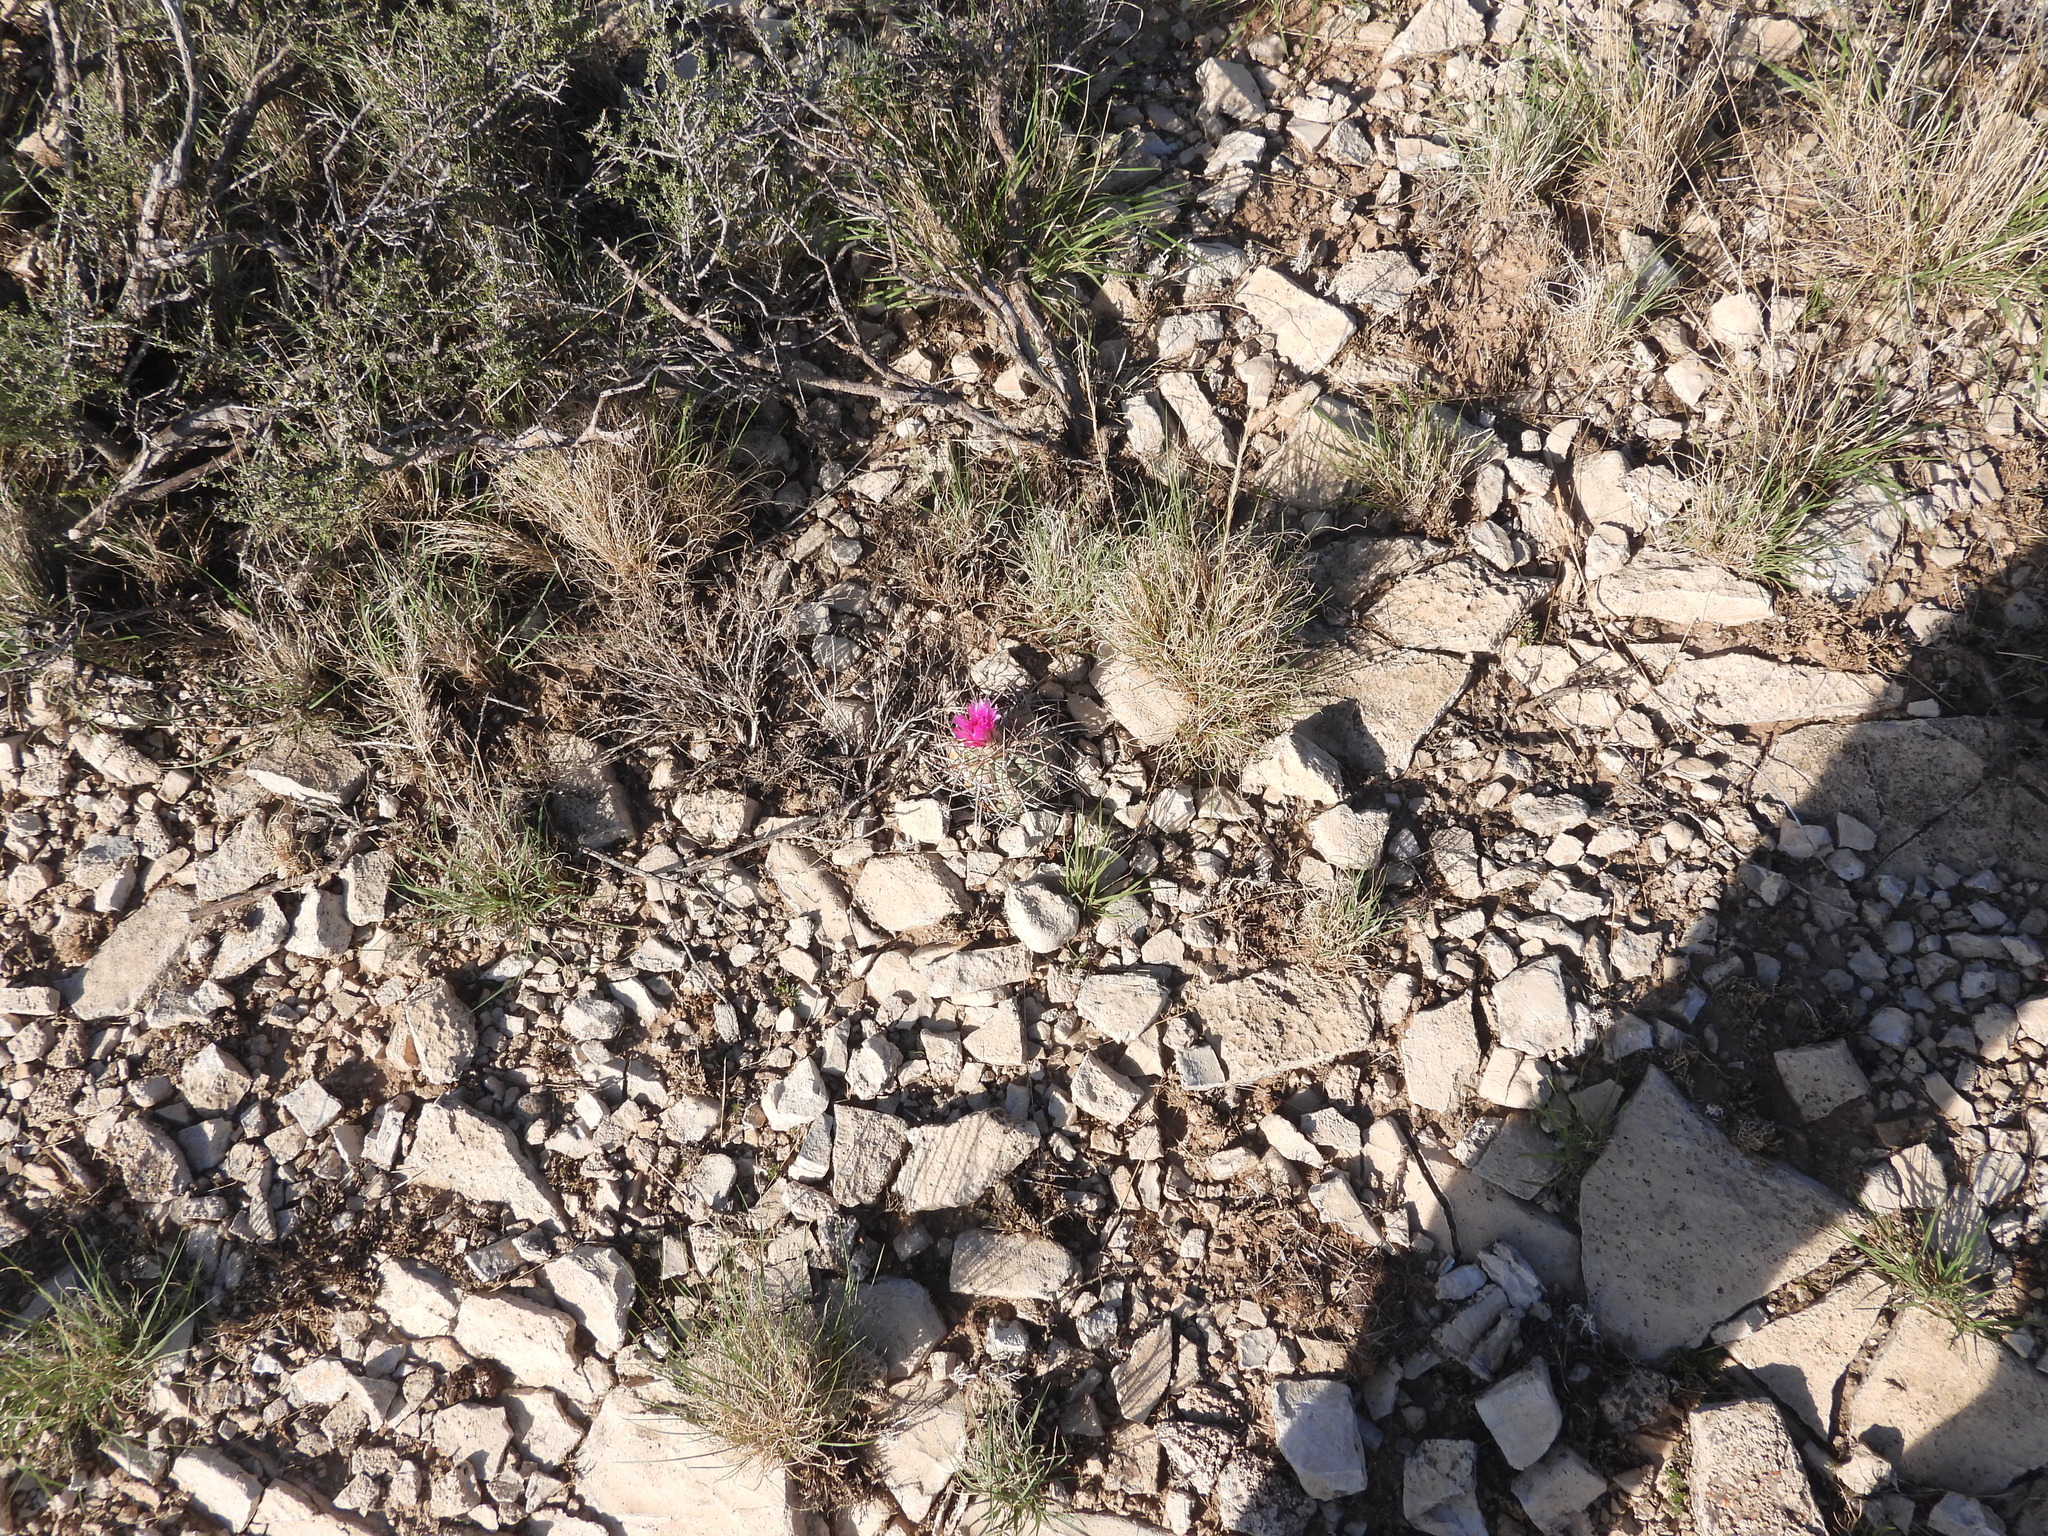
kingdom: Plantae
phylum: Tracheophyta
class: Magnoliopsida
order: Caryophyllales
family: Cactaceae
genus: Echinocactus
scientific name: Echinocactus horizonthalonius
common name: Devilshead
